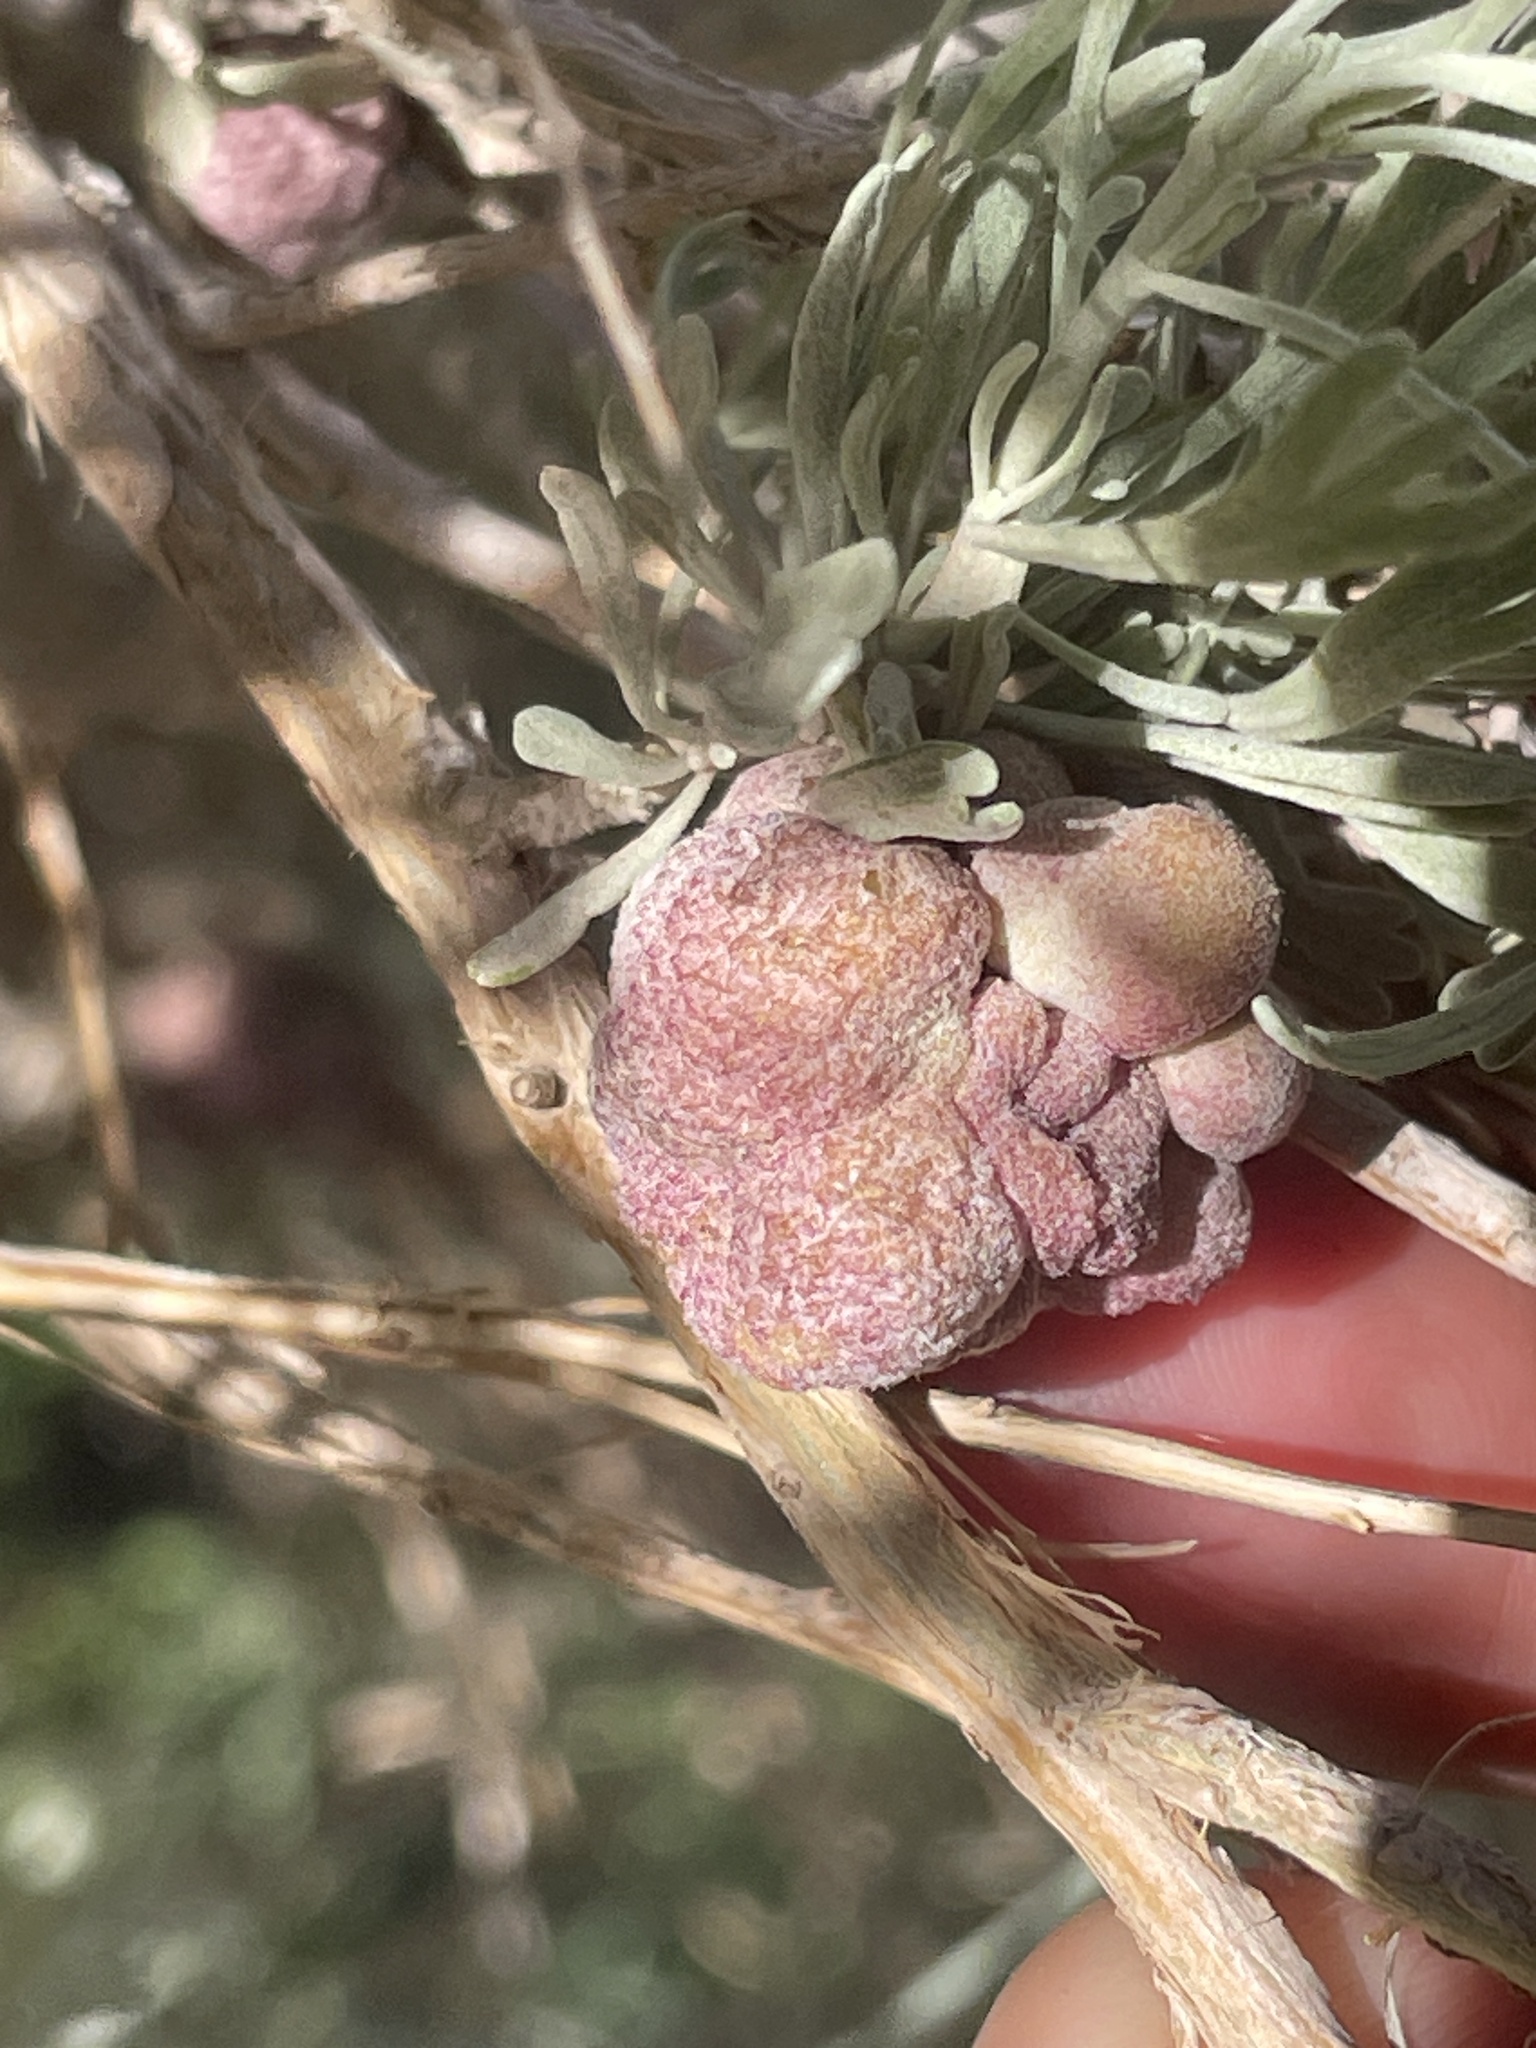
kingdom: Animalia
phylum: Arthropoda
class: Insecta
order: Diptera
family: Cecidomyiidae
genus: Rhopalomyia
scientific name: Rhopalomyia pomum
